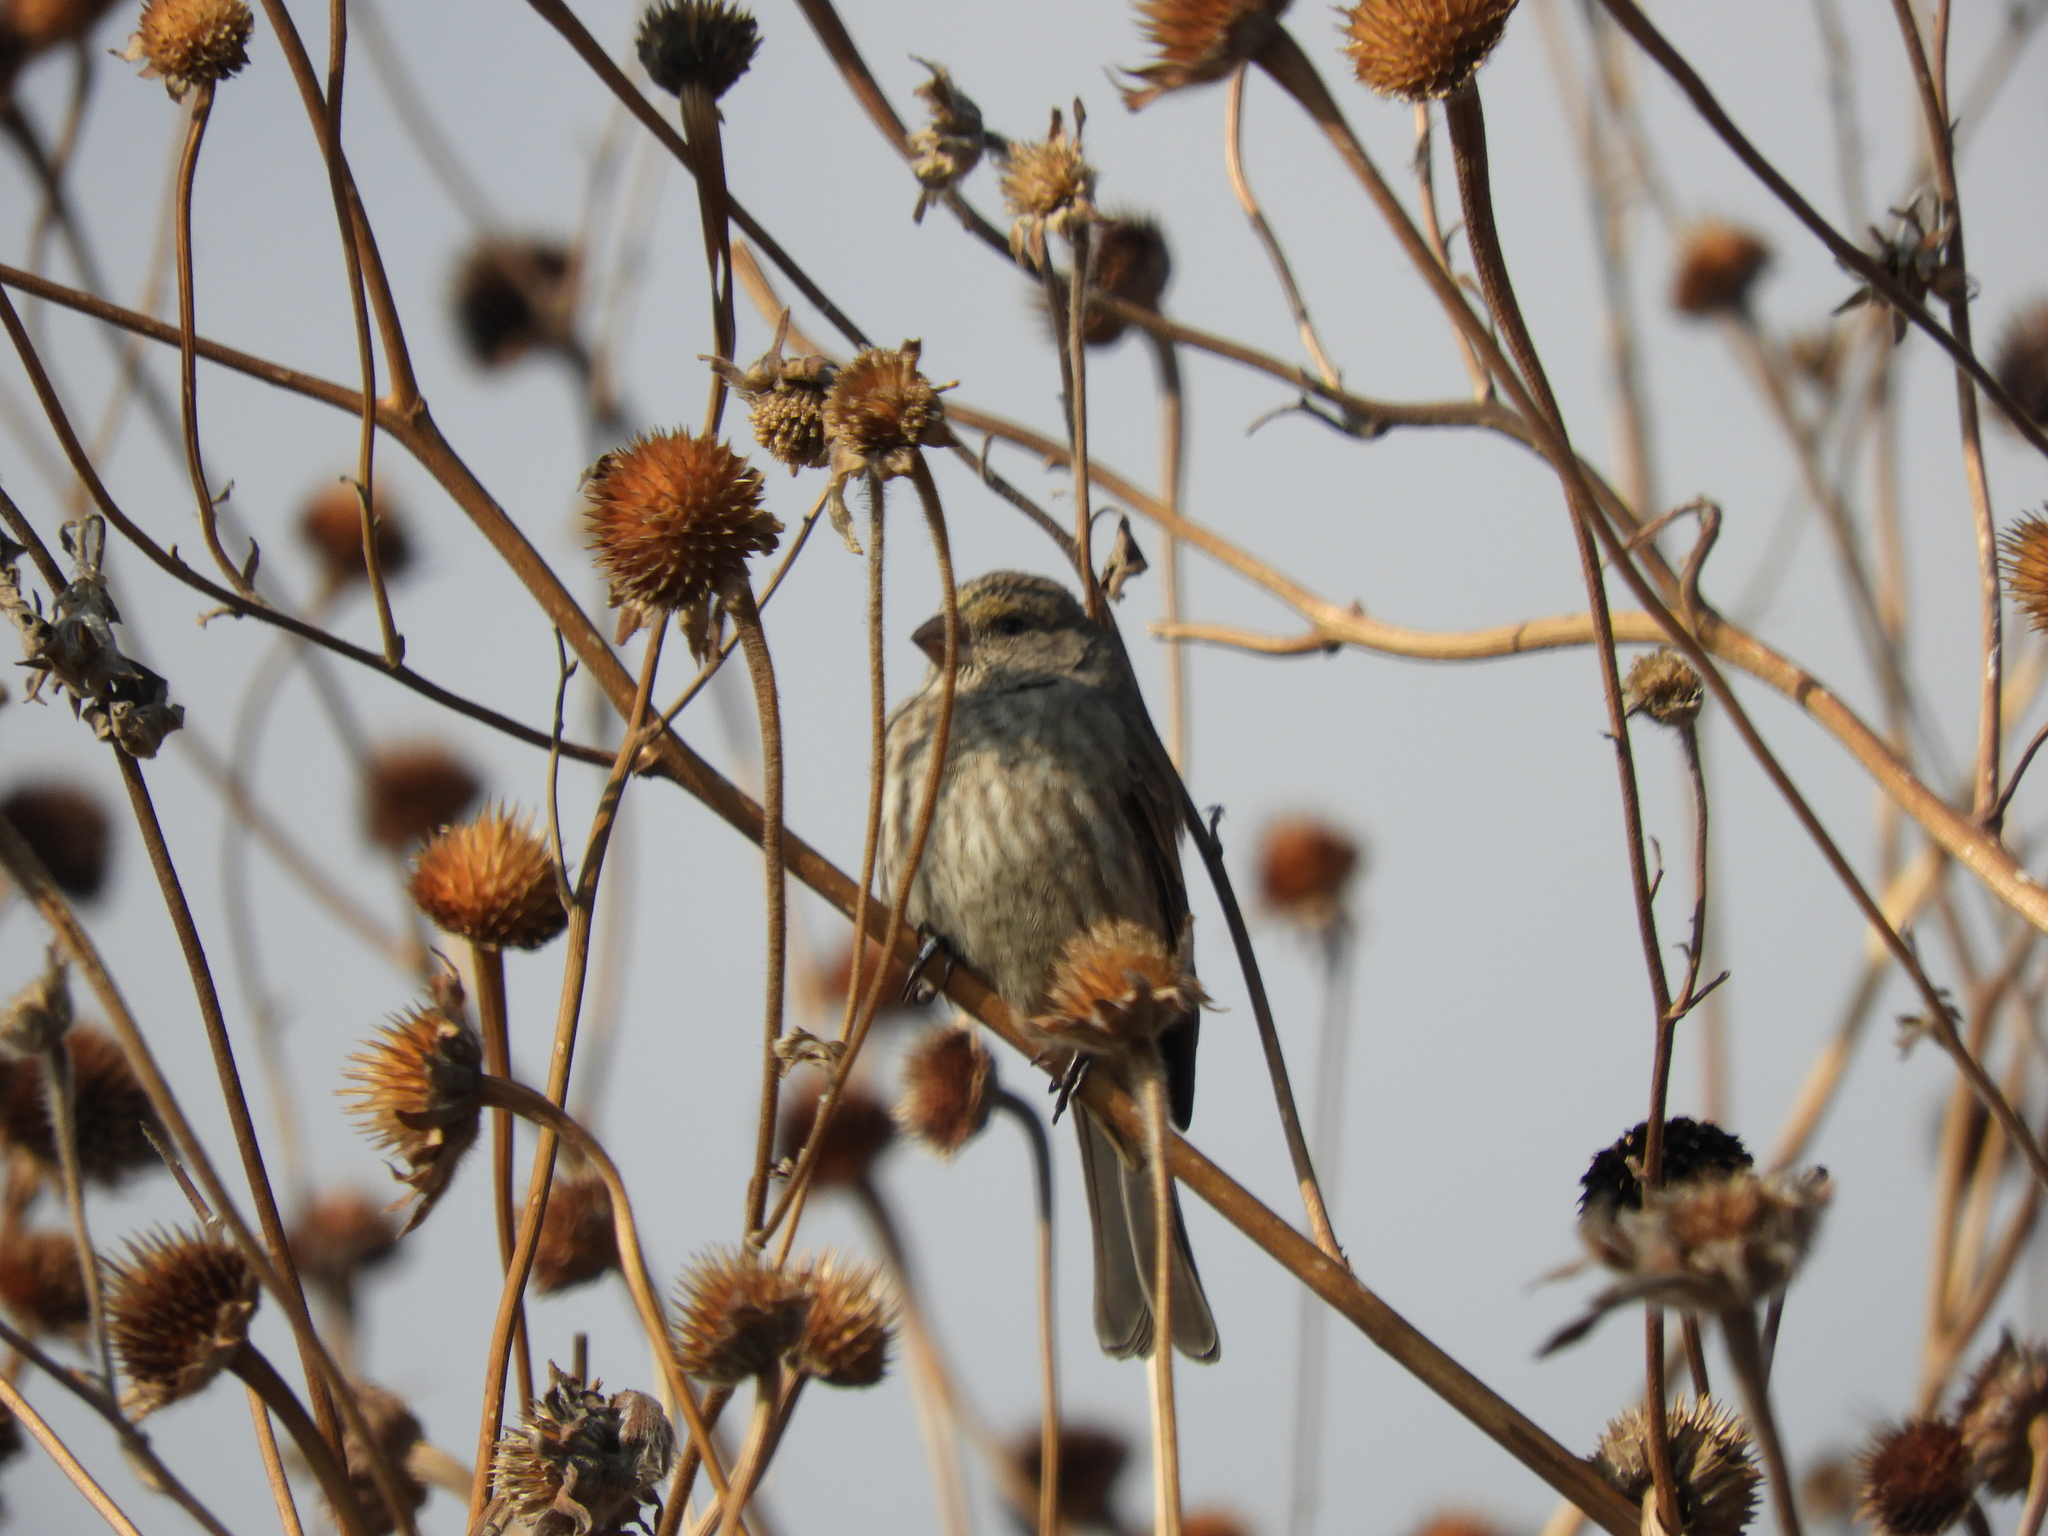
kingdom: Animalia
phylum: Chordata
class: Aves
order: Passeriformes
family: Fringillidae
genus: Haemorhous
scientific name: Haemorhous mexicanus
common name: House finch
